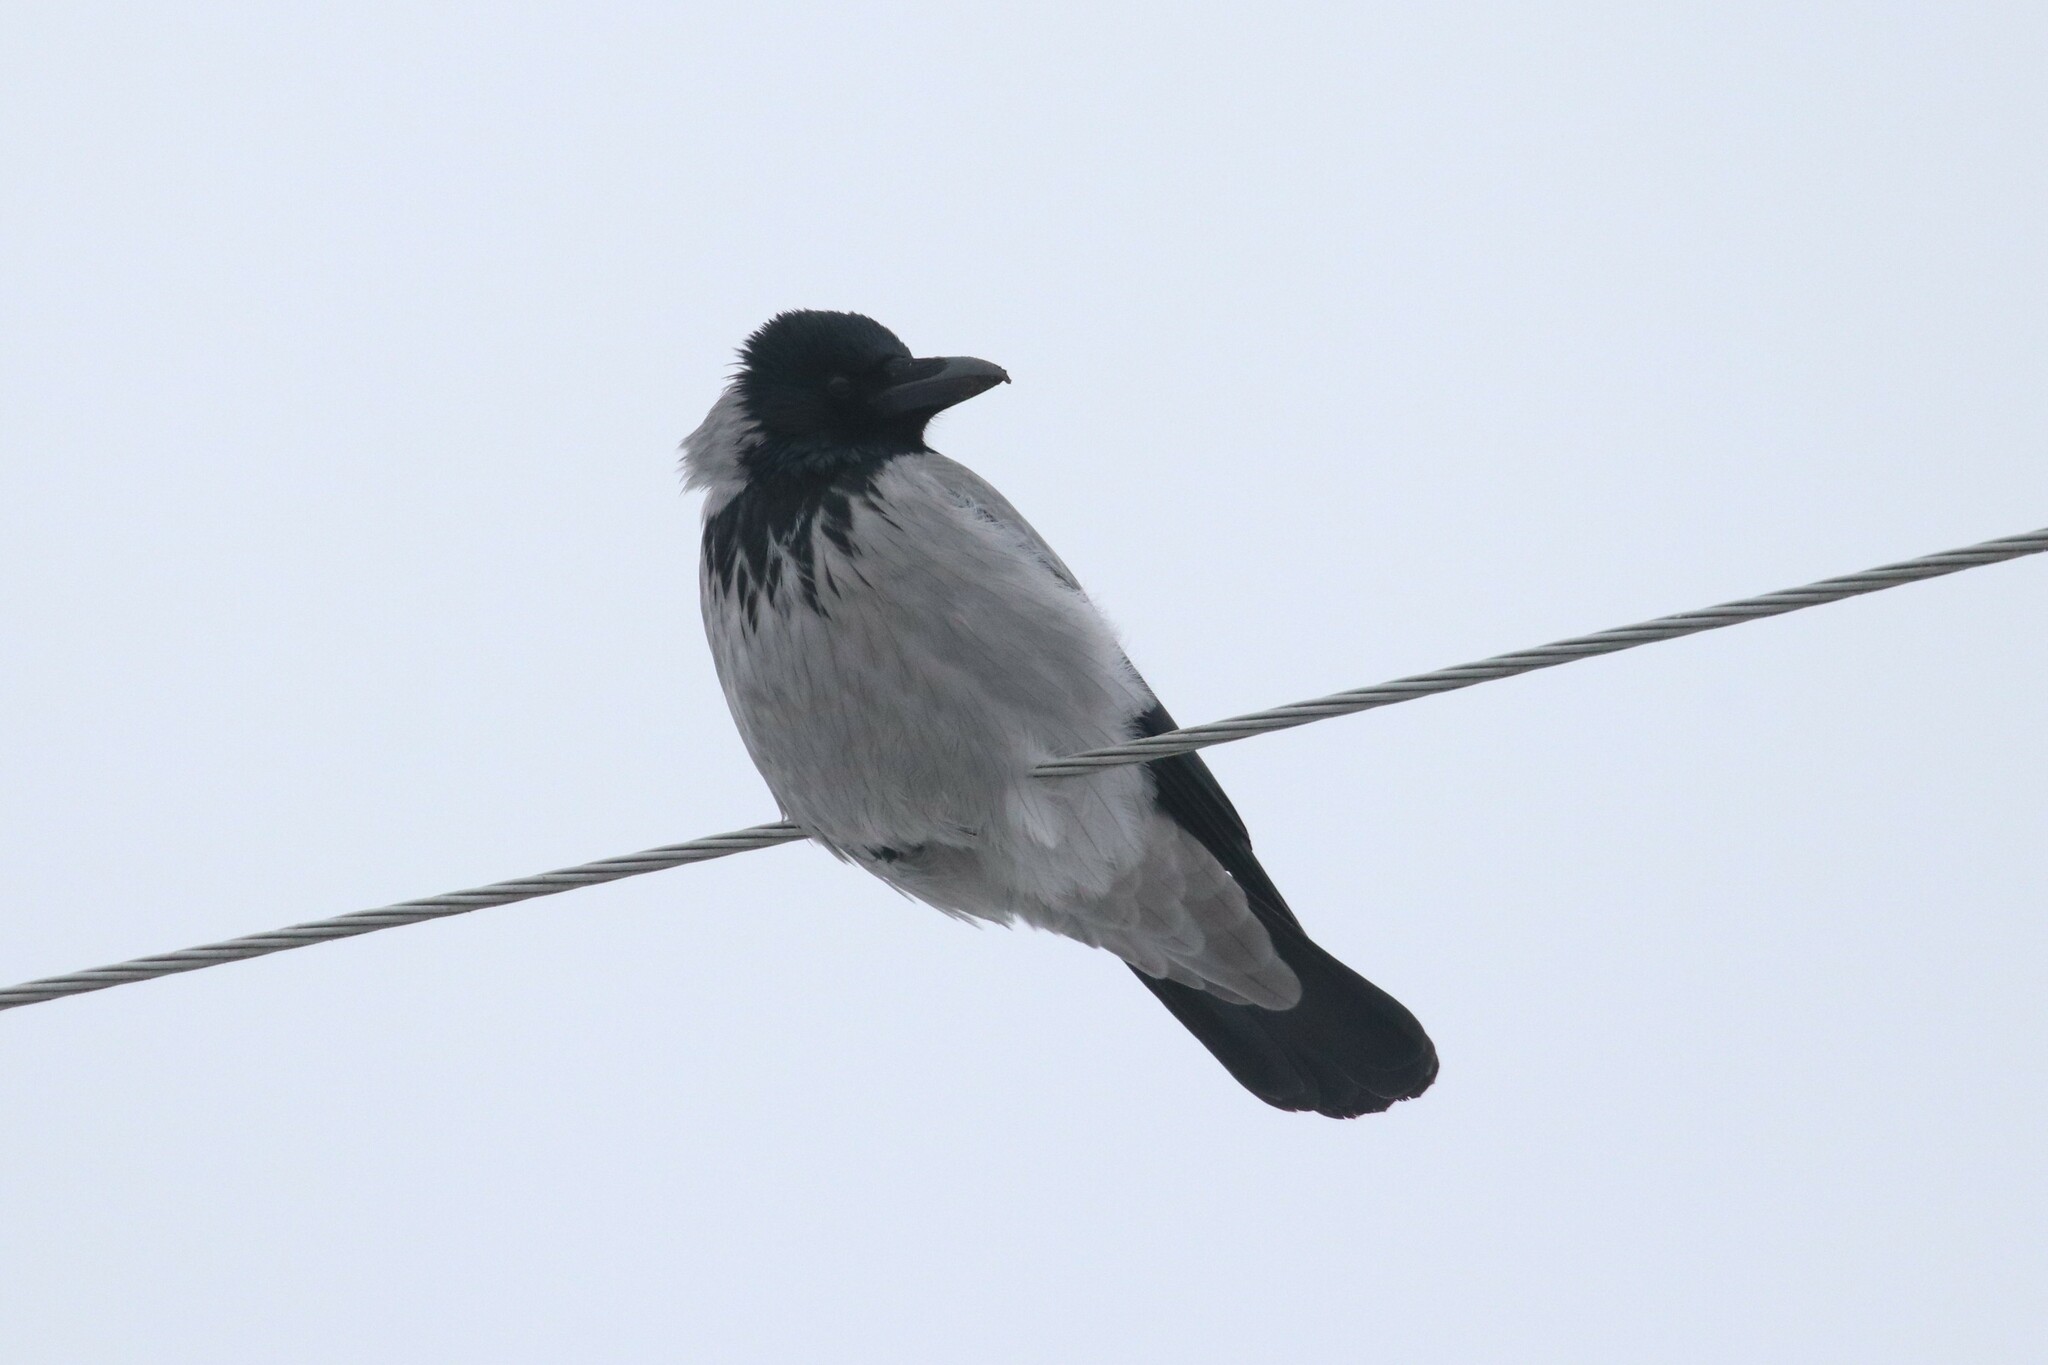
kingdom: Animalia
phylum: Chordata
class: Aves
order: Passeriformes
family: Corvidae
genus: Corvus
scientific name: Corvus cornix
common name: Hooded crow
